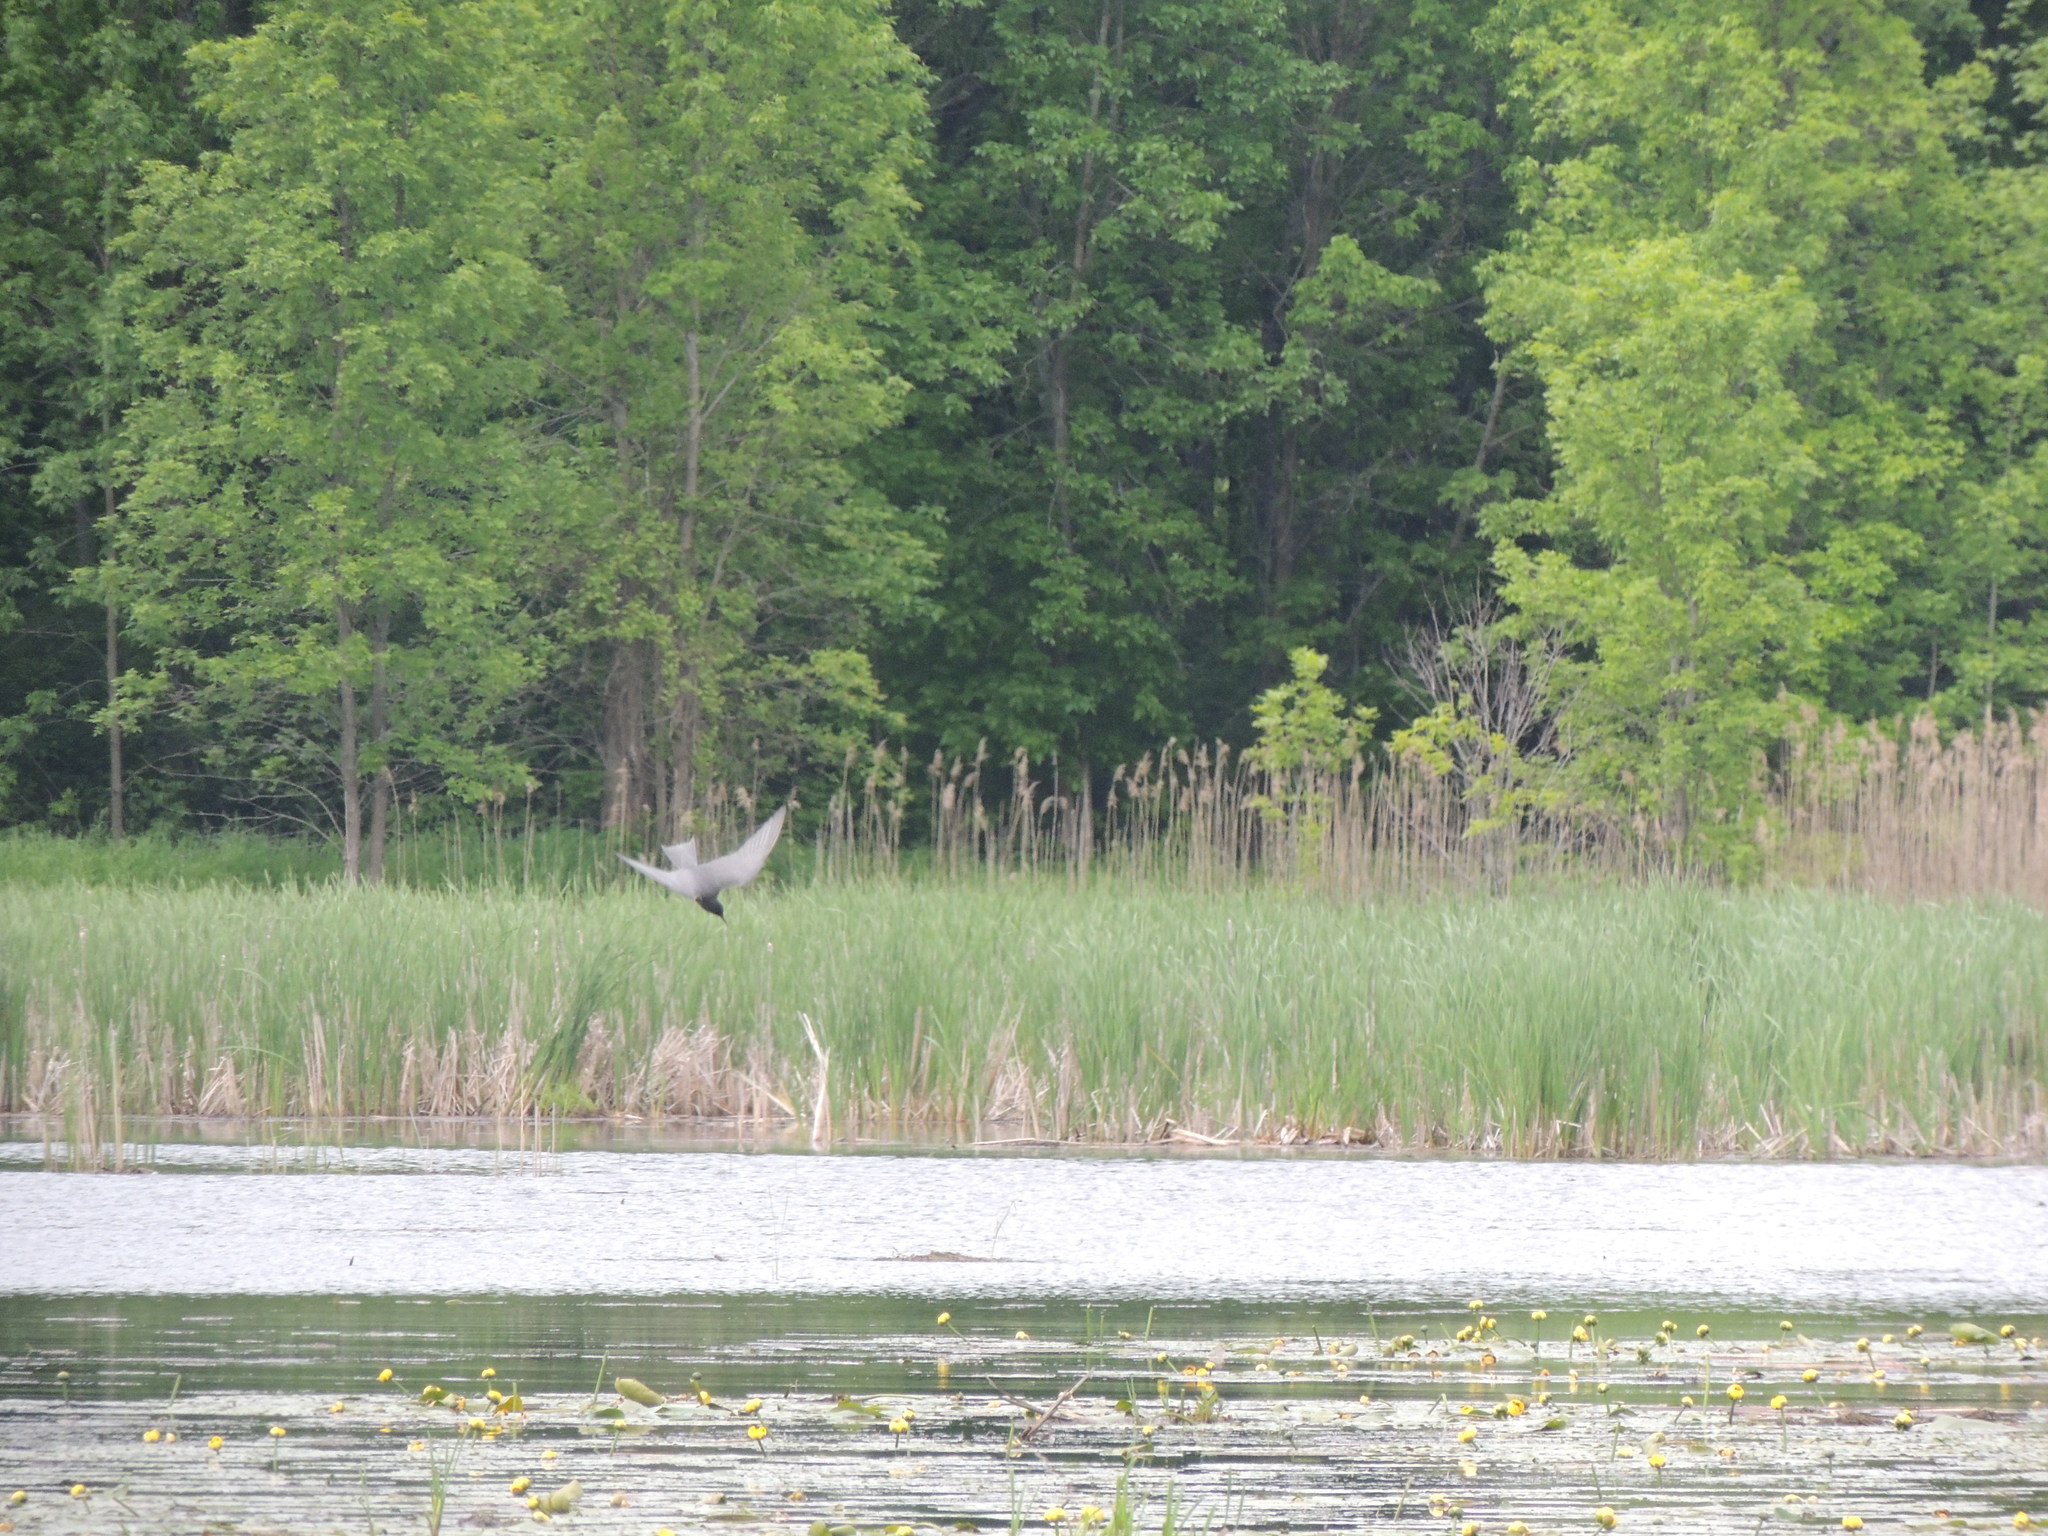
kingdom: Animalia
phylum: Chordata
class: Aves
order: Charadriiformes
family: Laridae
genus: Chlidonias
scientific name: Chlidonias niger
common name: Black tern
